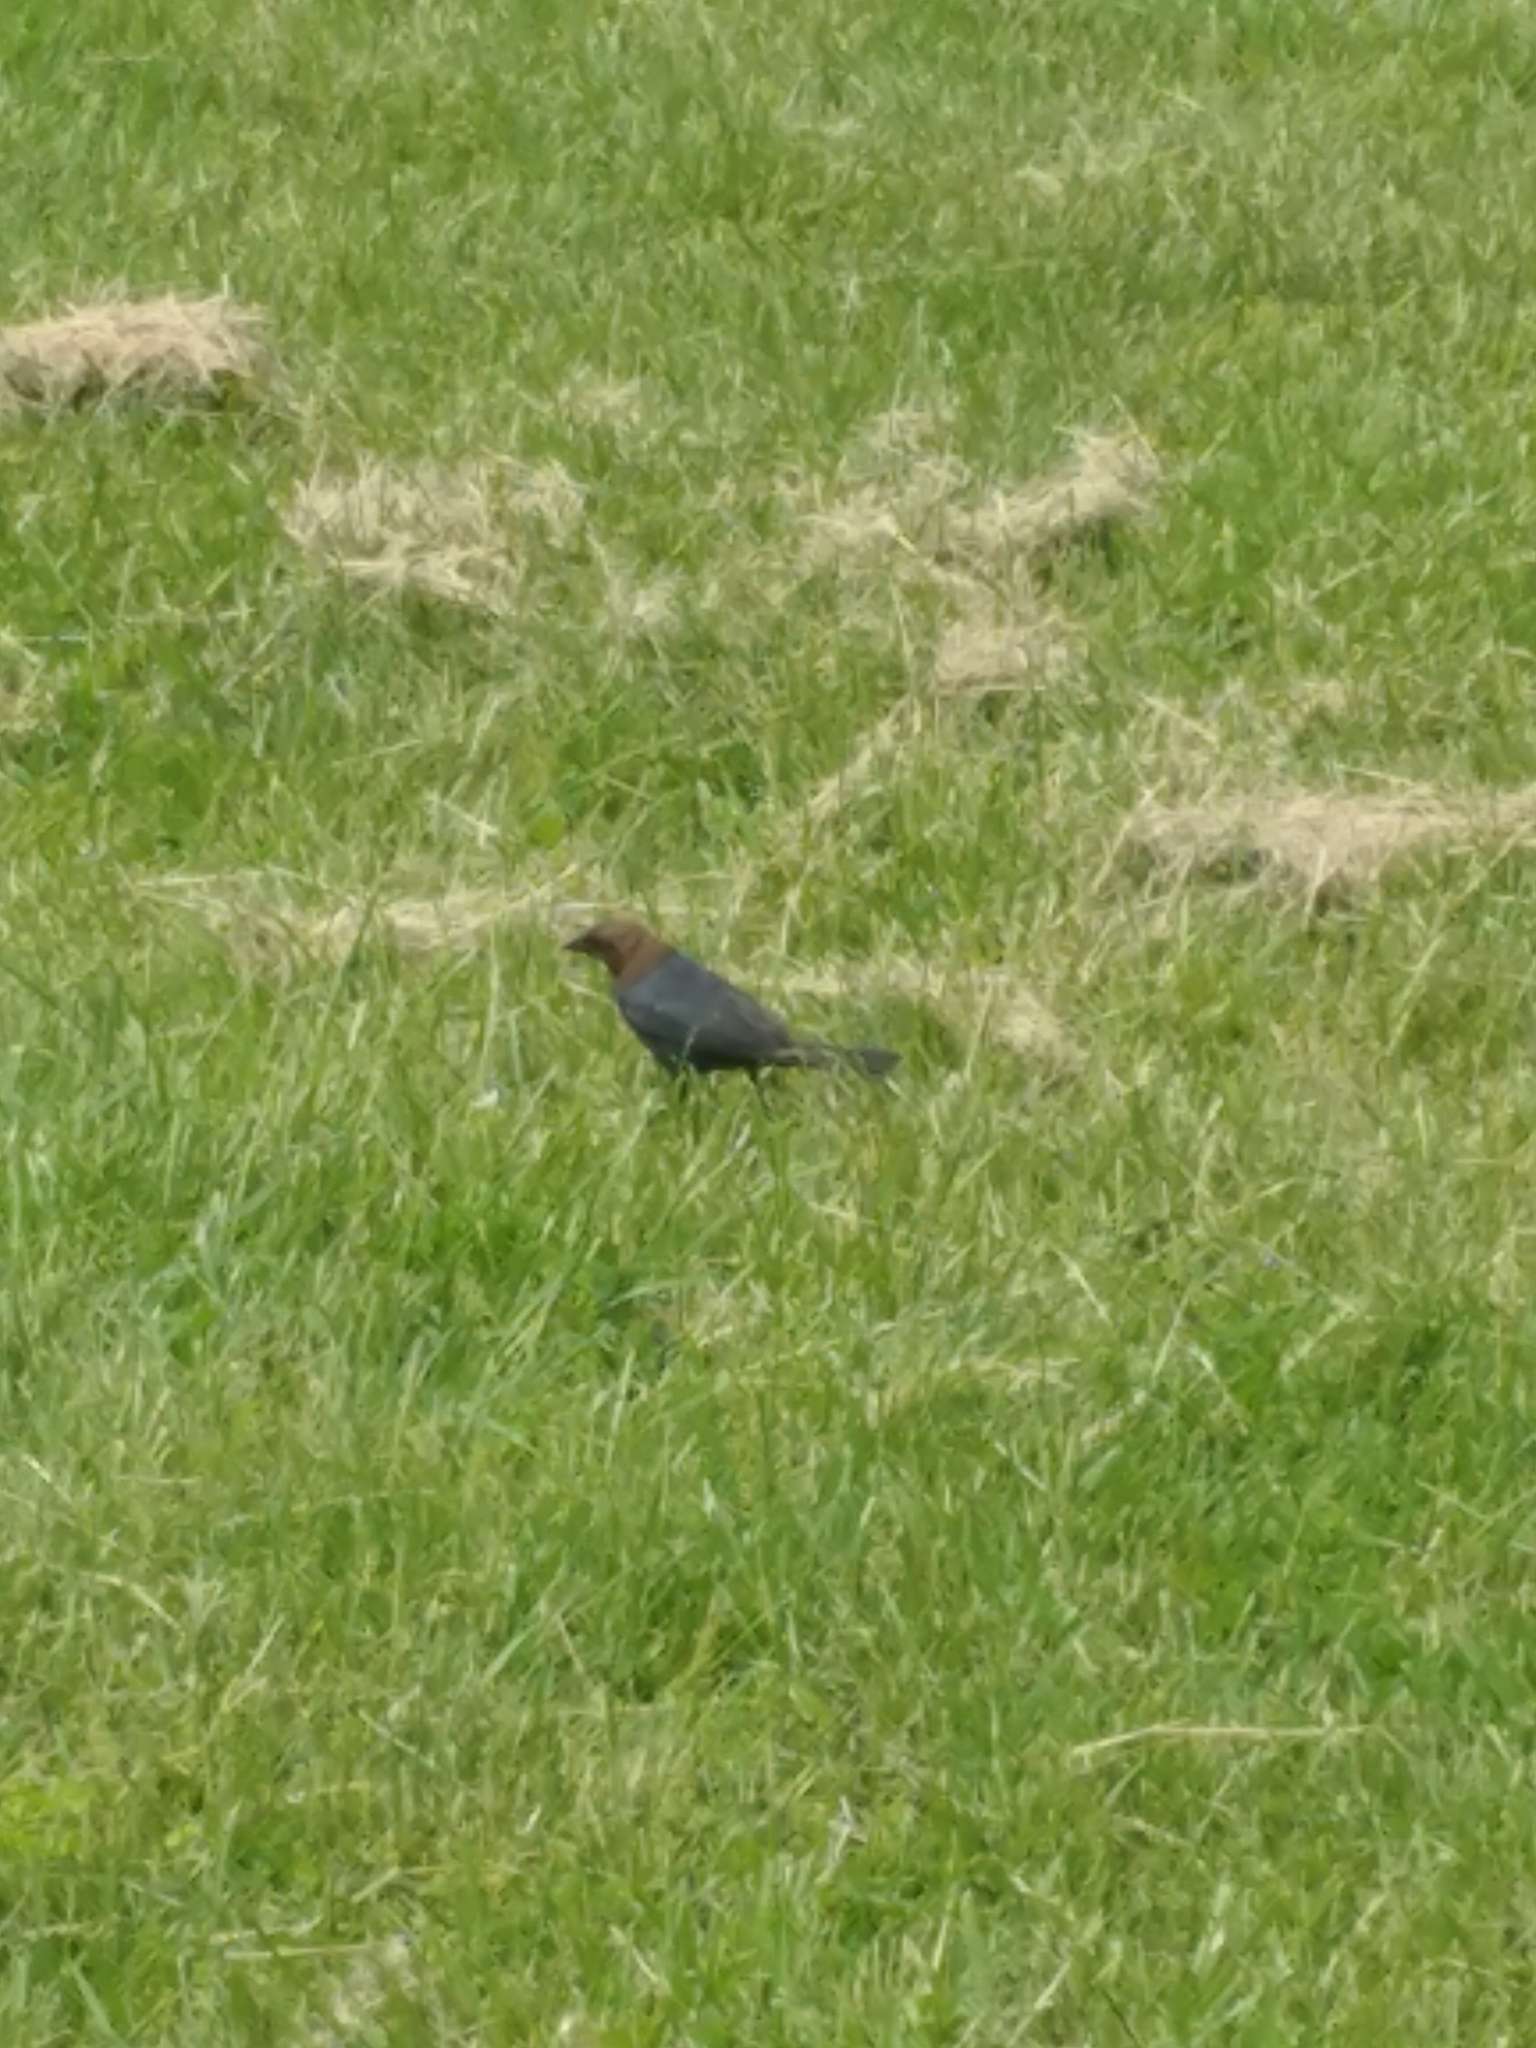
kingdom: Animalia
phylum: Chordata
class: Aves
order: Passeriformes
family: Icteridae
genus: Molothrus
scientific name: Molothrus ater
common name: Brown-headed cowbird
